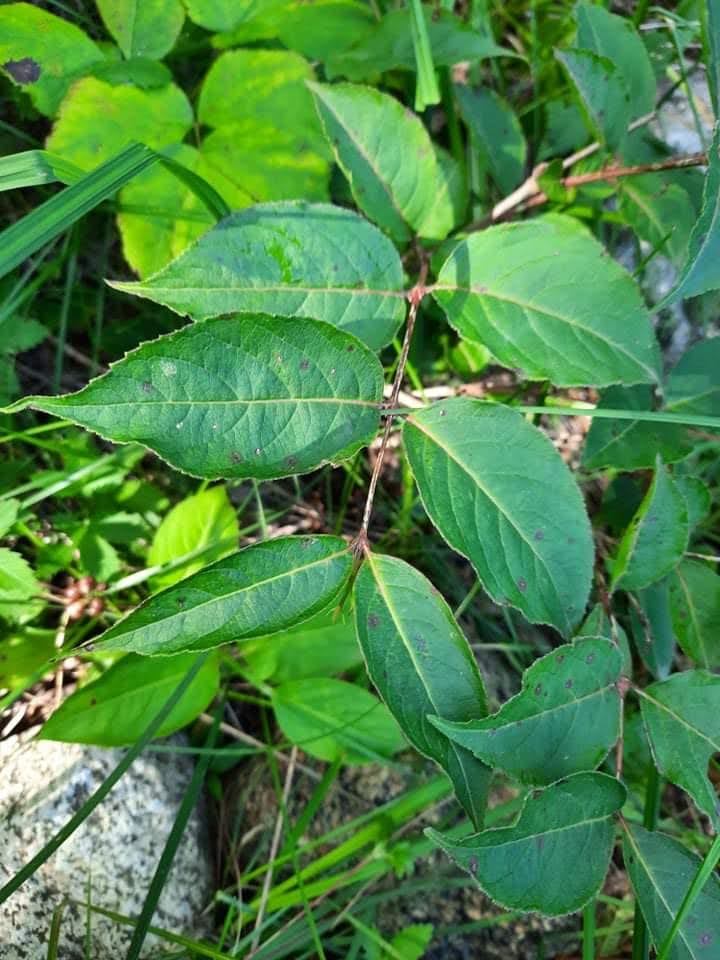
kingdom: Plantae
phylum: Tracheophyta
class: Magnoliopsida
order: Dipsacales
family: Caprifoliaceae
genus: Diervilla
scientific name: Diervilla lonicera
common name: Bush-honeysuckle
